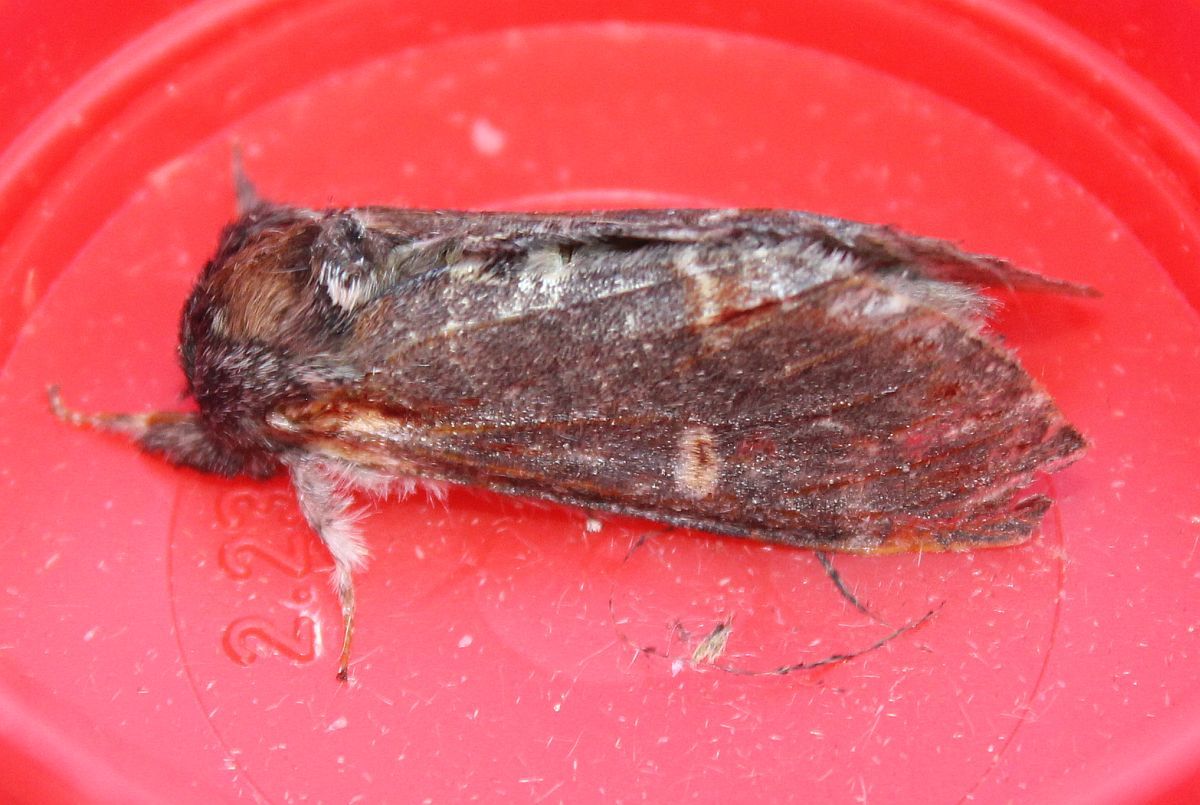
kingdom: Animalia
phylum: Arthropoda
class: Insecta
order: Lepidoptera
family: Notodontidae
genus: Notodonta
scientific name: Notodonta dromedarius
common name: Iron prominent
